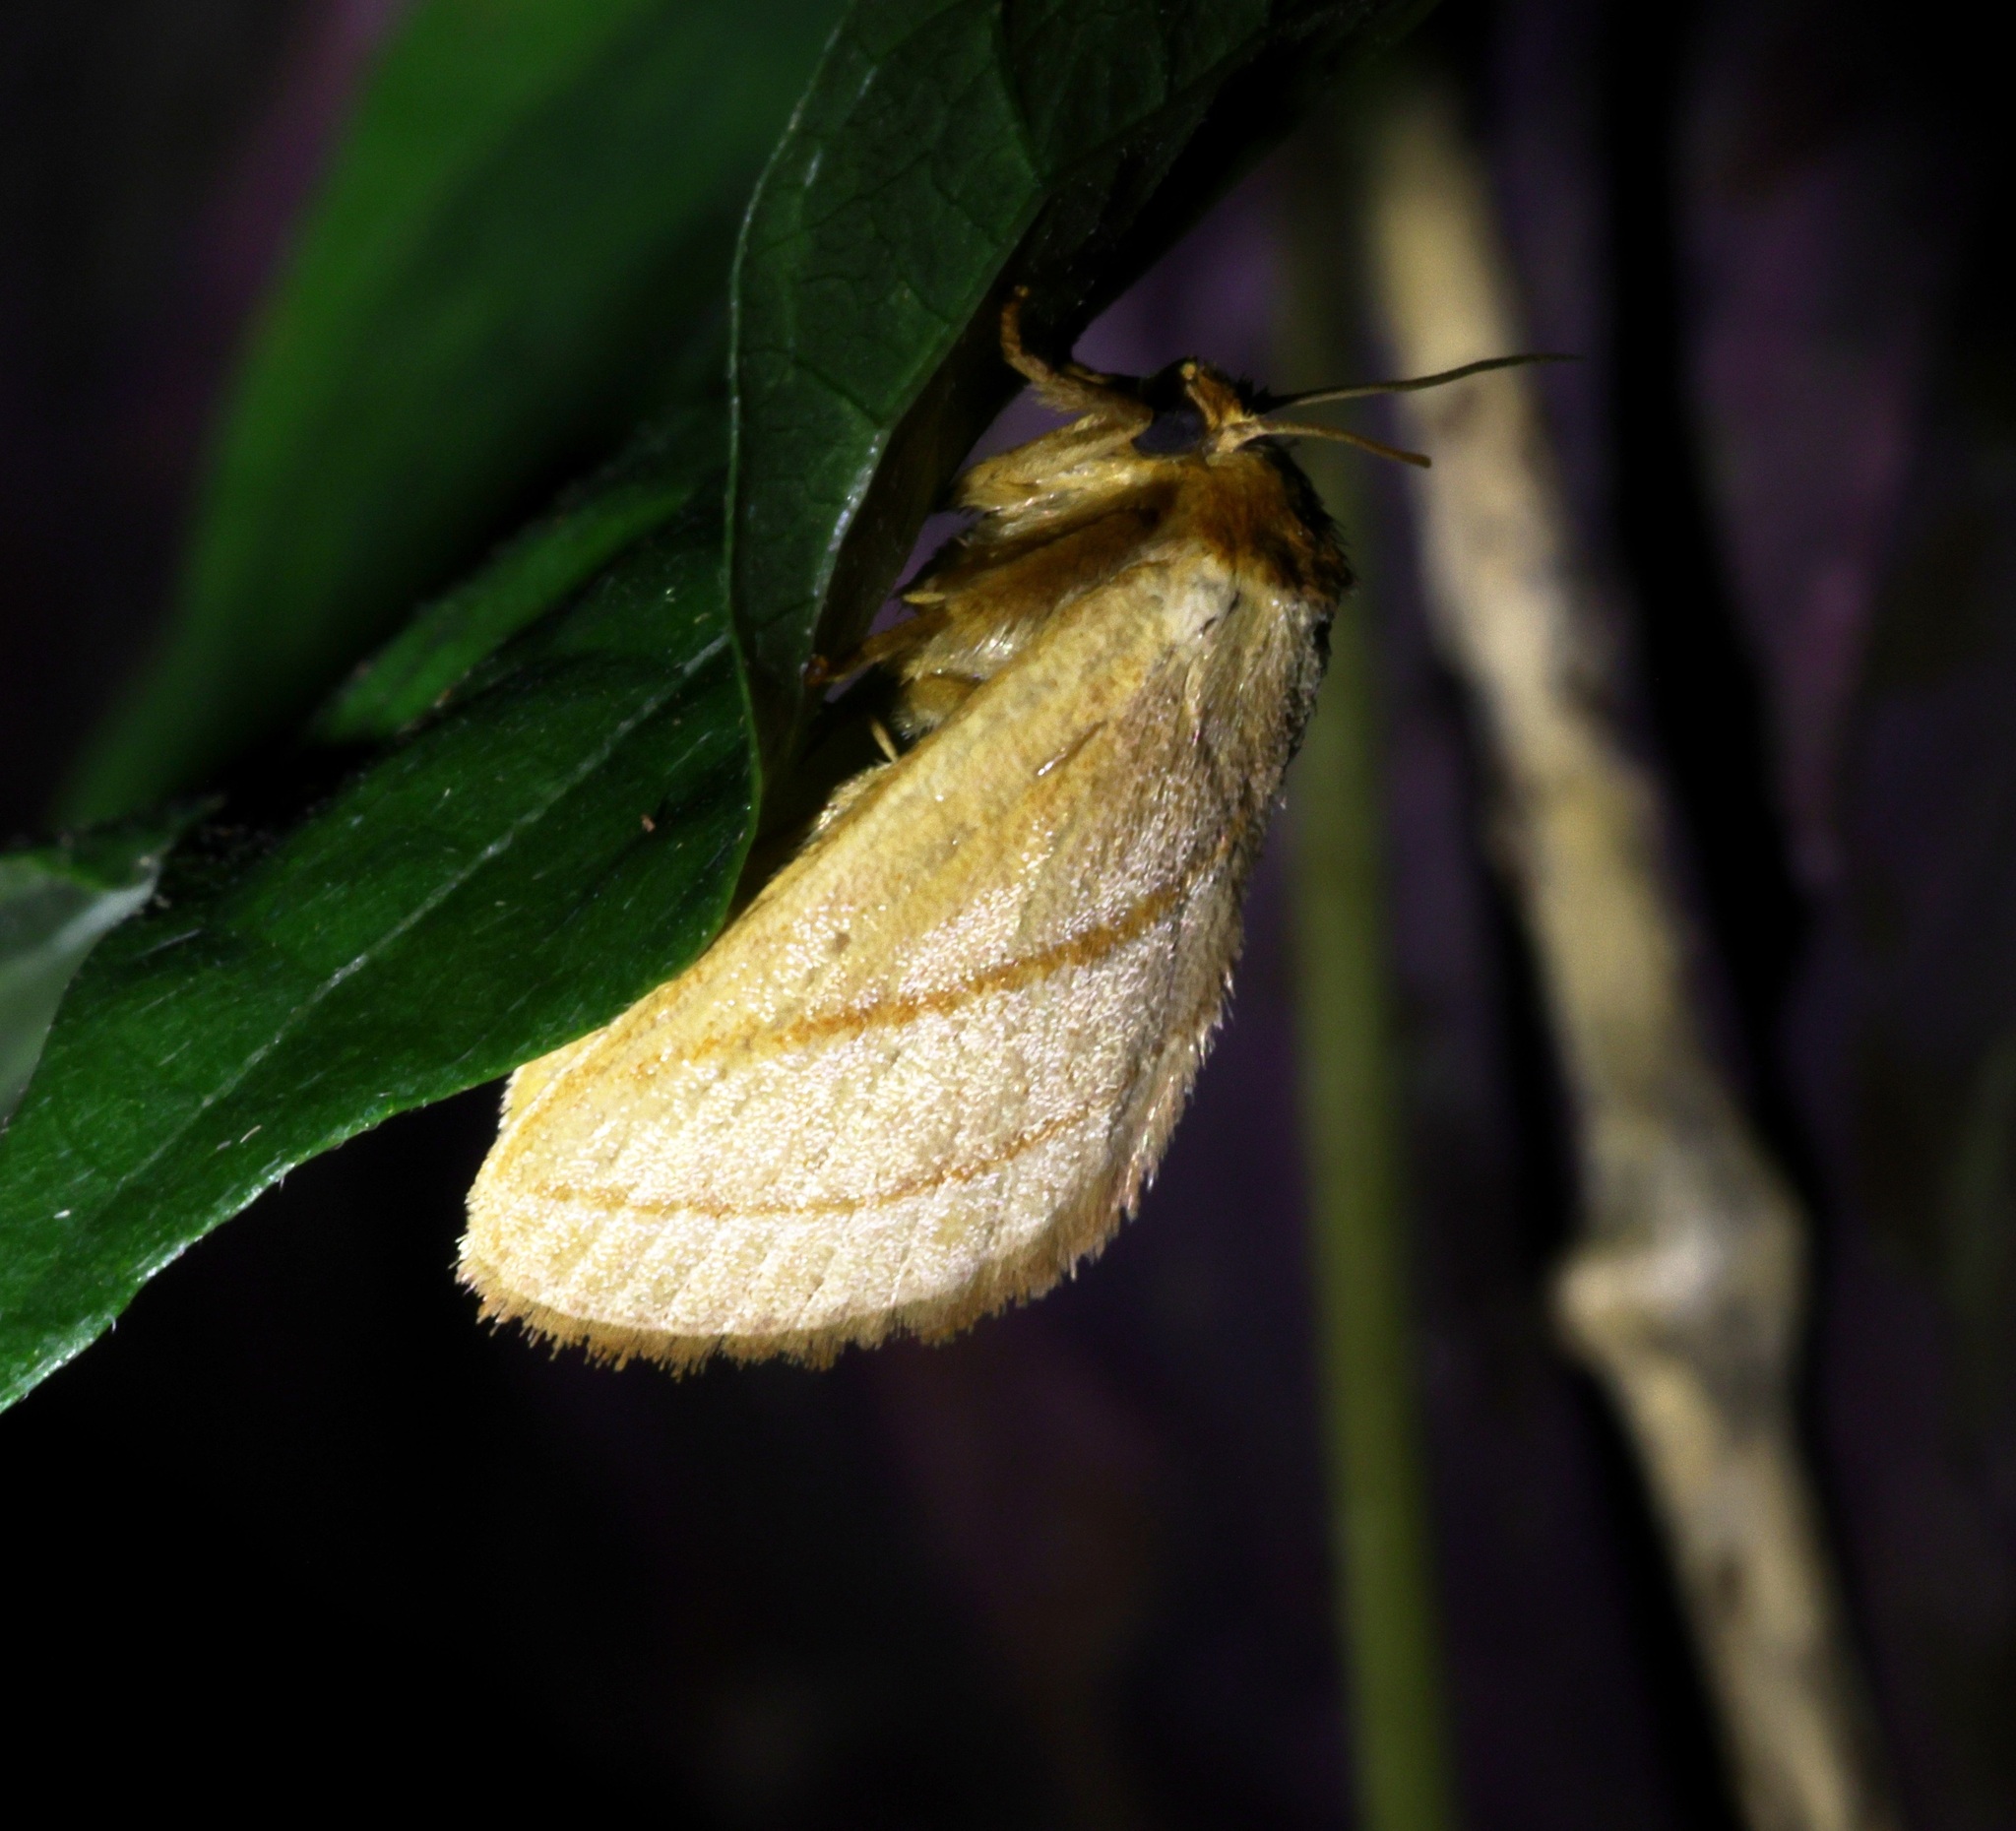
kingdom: Animalia
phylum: Arthropoda
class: Insecta
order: Lepidoptera
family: Limacodidae
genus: Cania
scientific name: Cania bilinea
